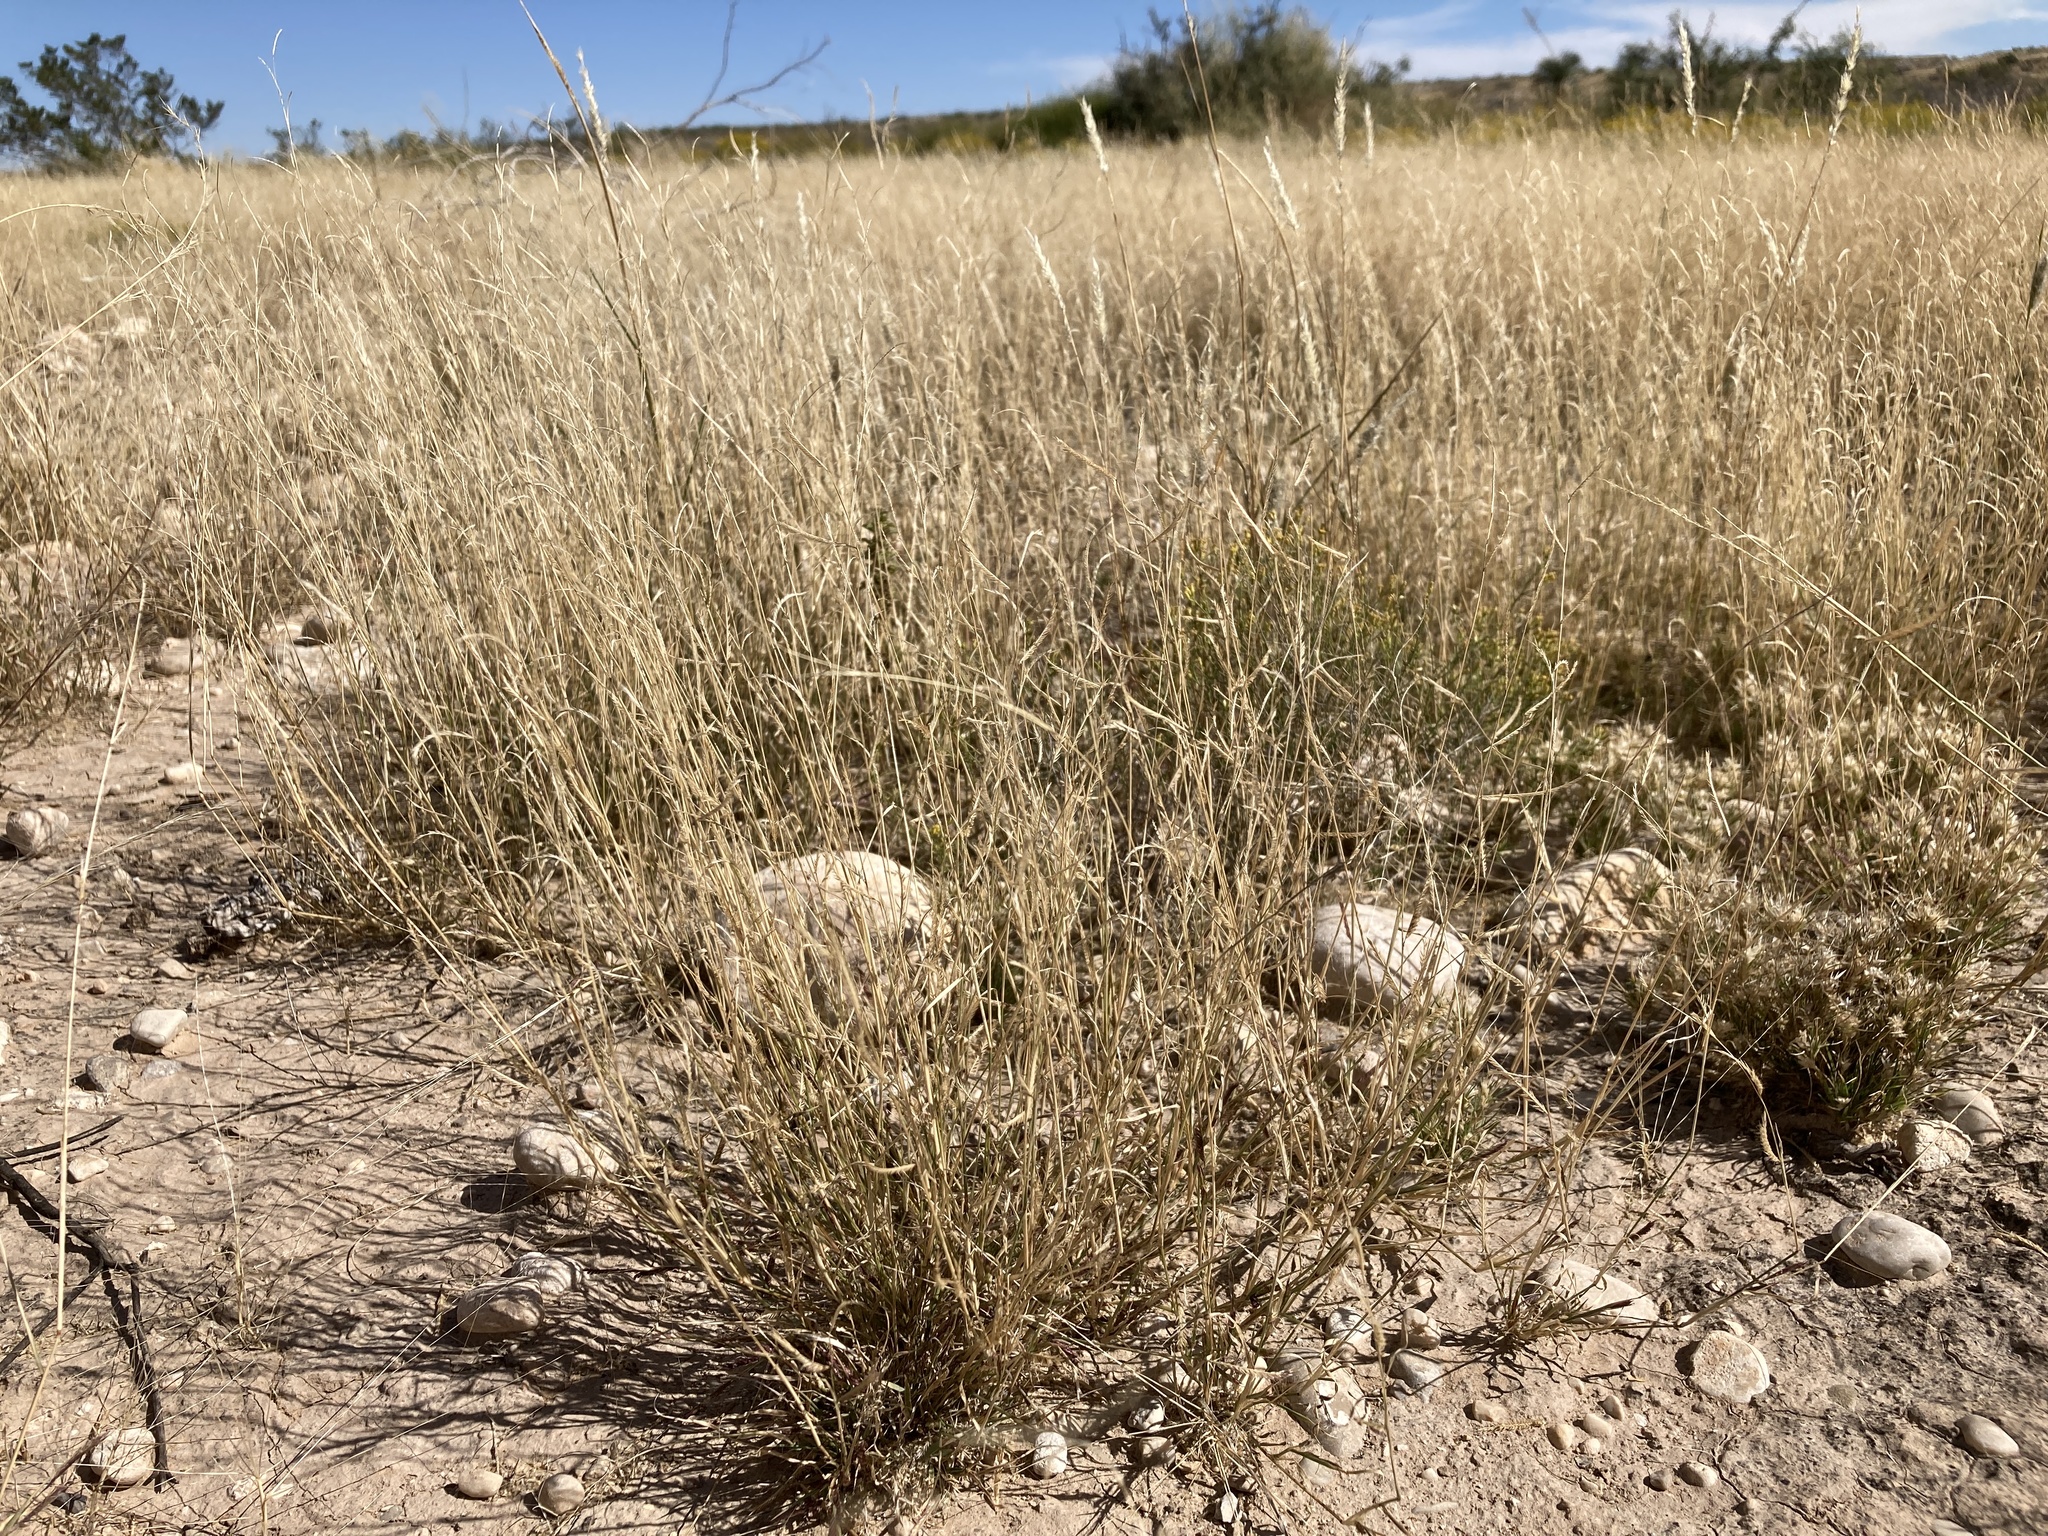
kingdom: Plantae
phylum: Tracheophyta
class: Liliopsida
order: Poales
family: Poaceae
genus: Bouteloua
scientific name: Bouteloua barbata
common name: Six-weeks grama
